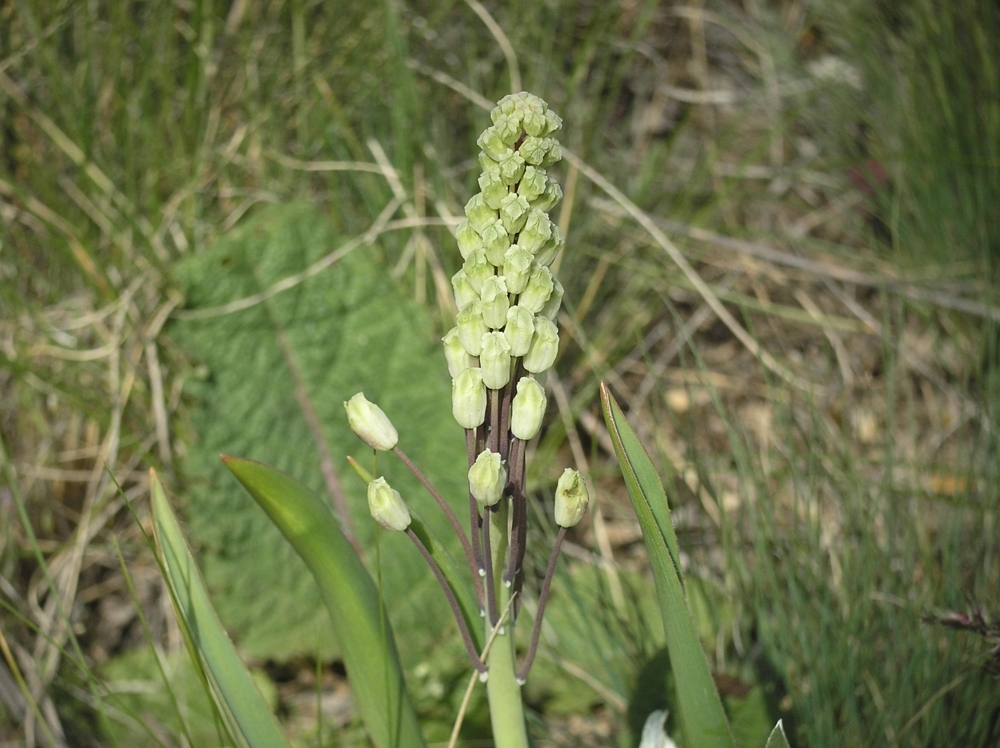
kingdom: Plantae
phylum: Tracheophyta
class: Liliopsida
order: Asparagales
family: Asparagaceae
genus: Bellevalia
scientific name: Bellevalia speciosa
